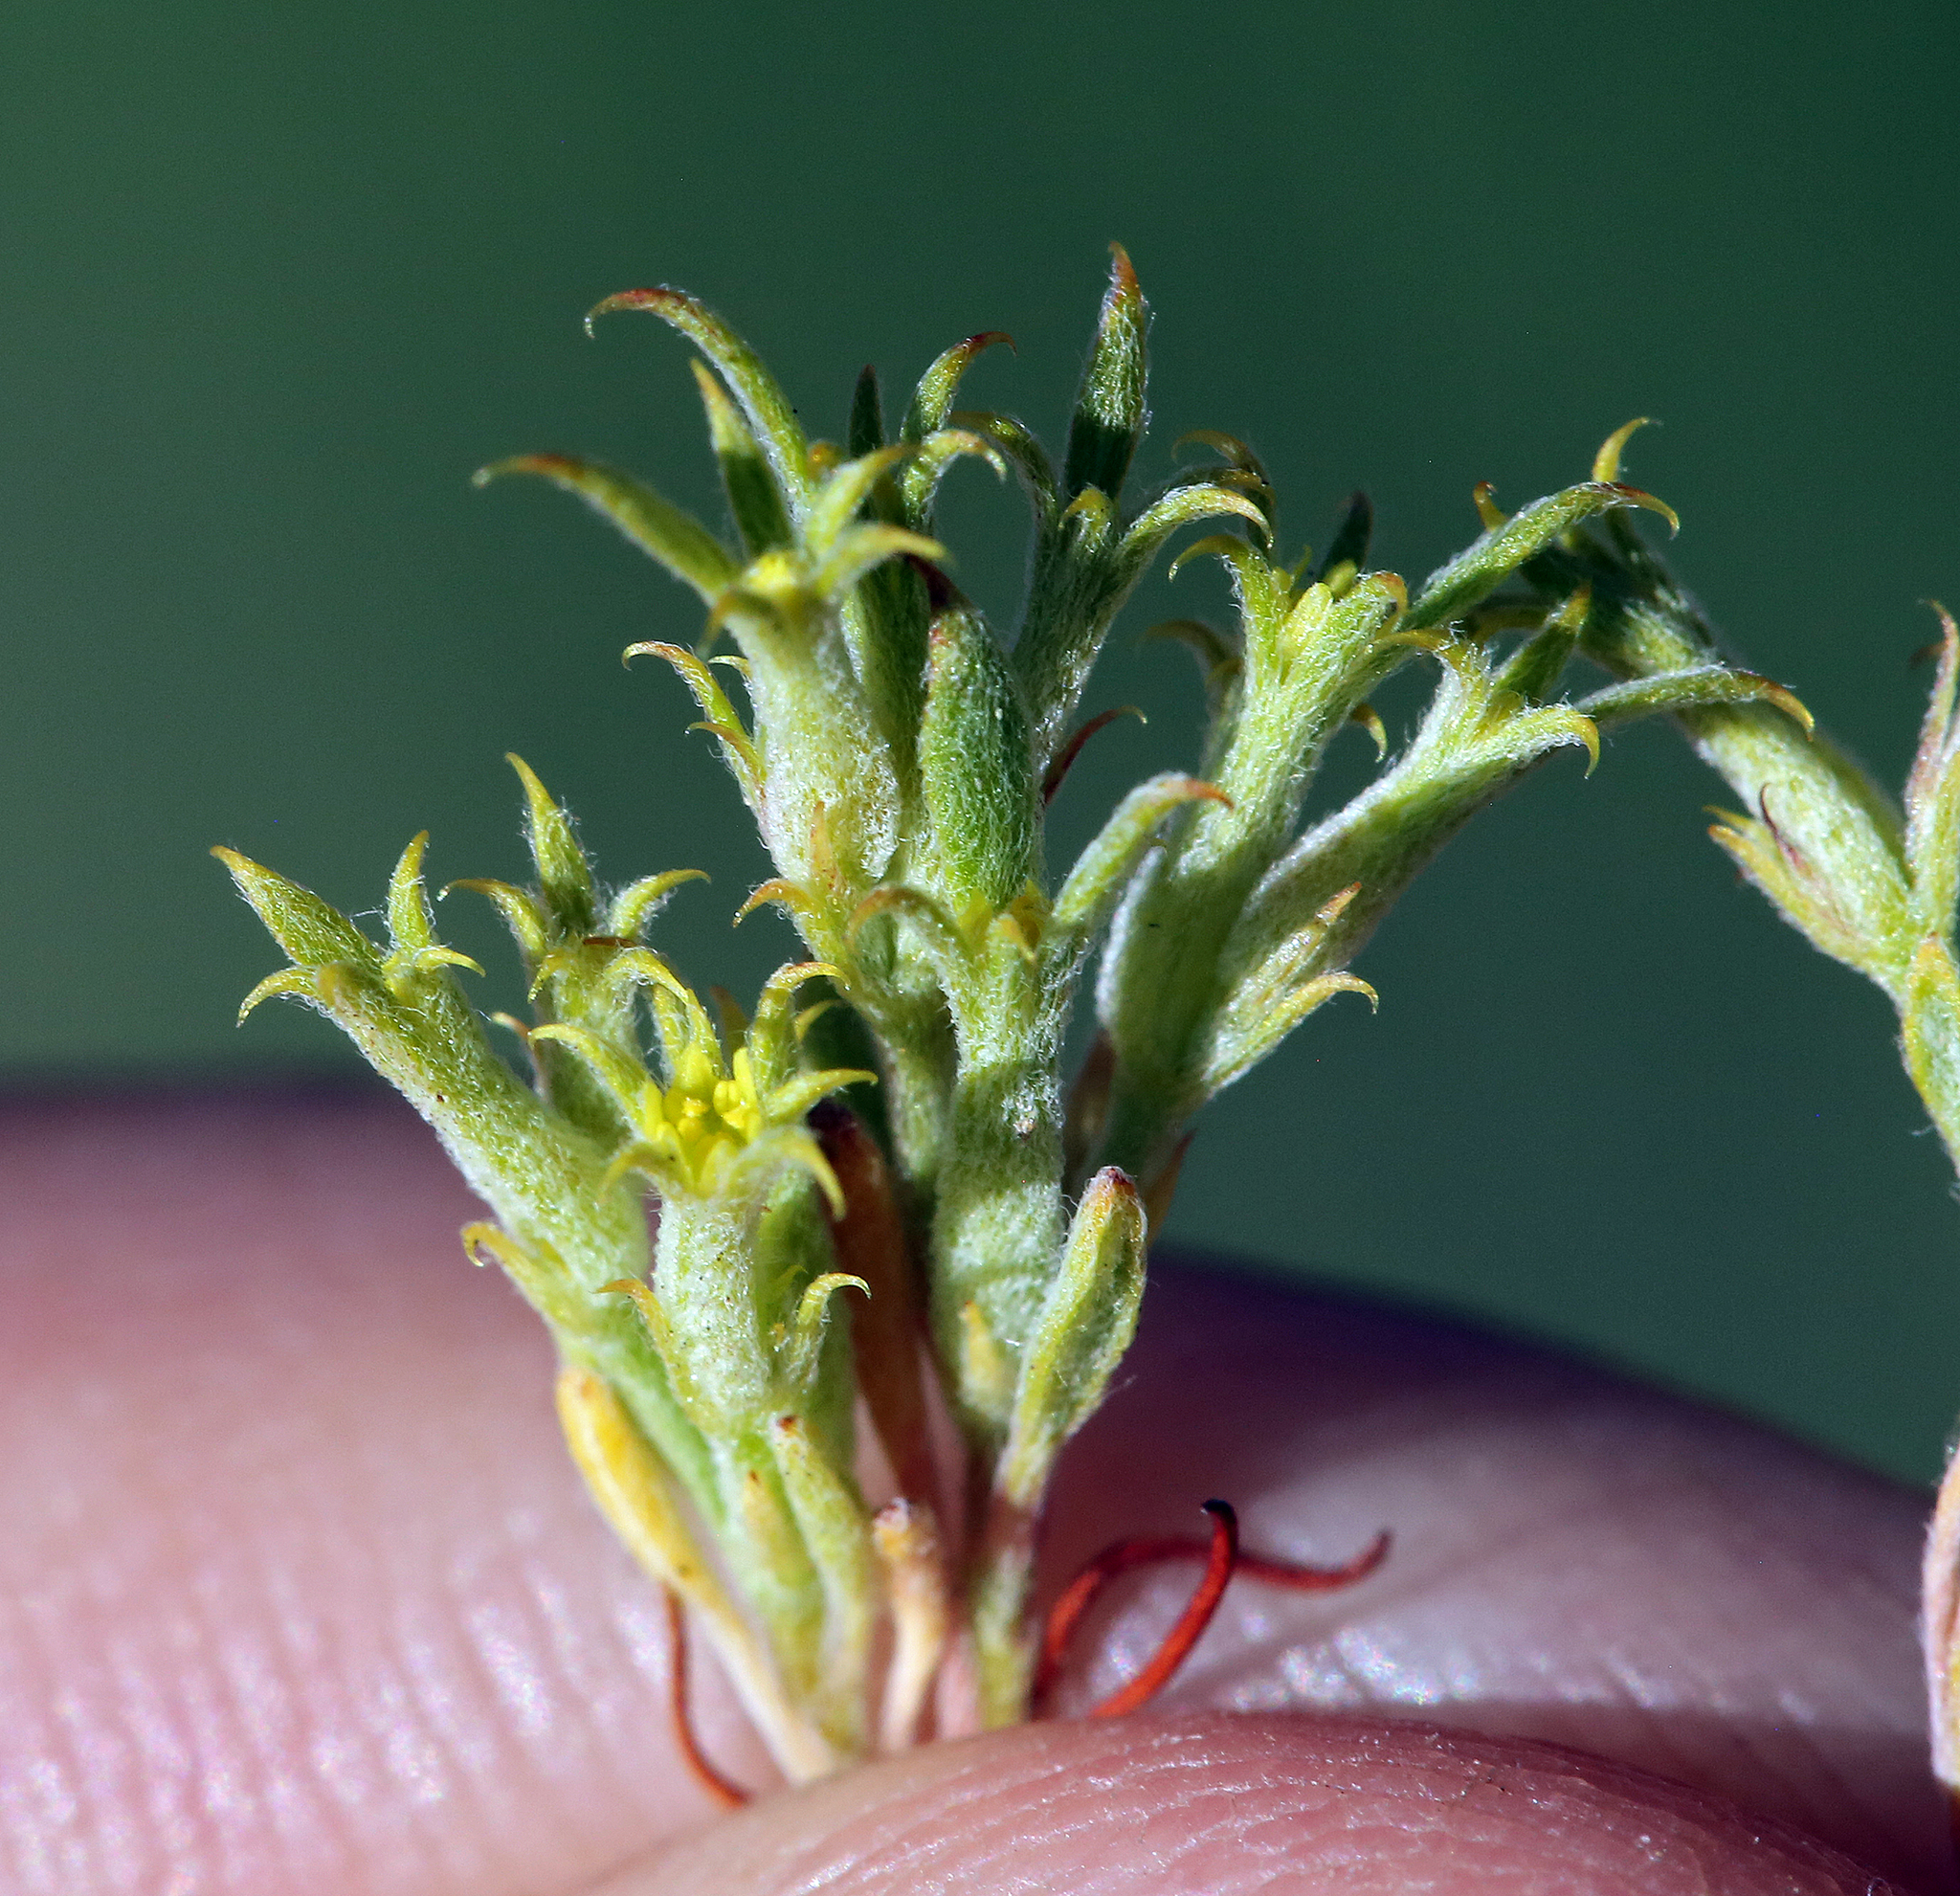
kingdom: Plantae
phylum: Tracheophyta
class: Magnoliopsida
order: Caryophyllales
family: Polygonaceae
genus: Chorizanthe
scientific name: Chorizanthe watsonii
